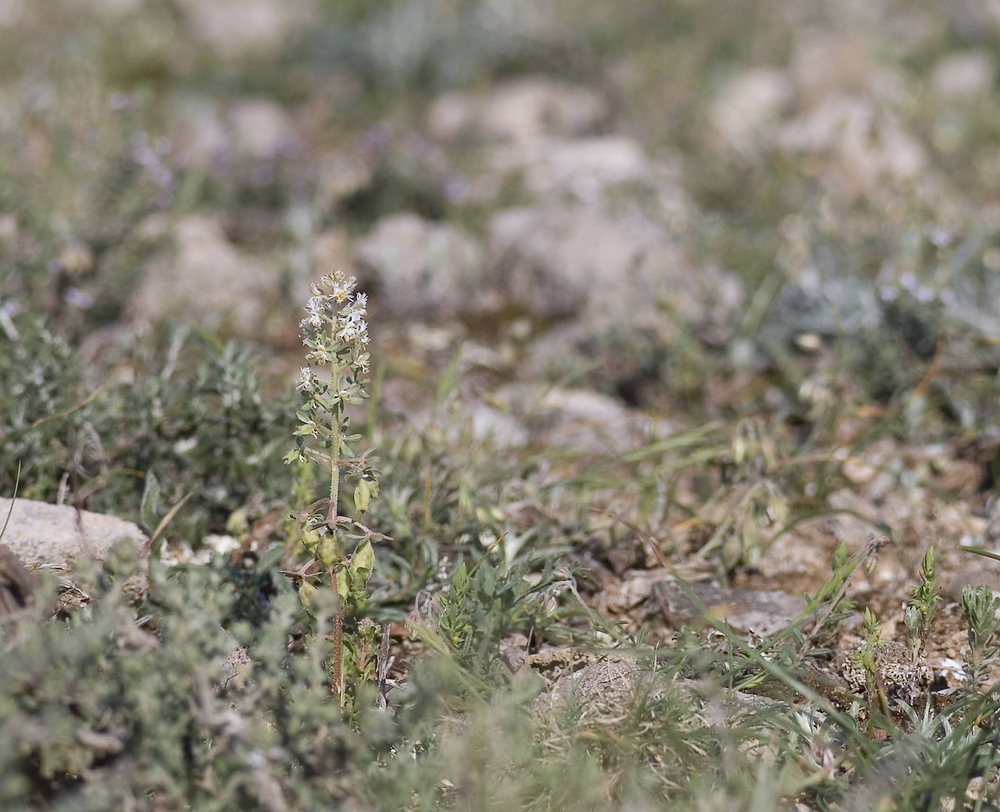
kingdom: Plantae
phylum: Tracheophyta
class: Magnoliopsida
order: Brassicales
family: Resedaceae
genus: Reseda
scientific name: Reseda phyteuma
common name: Corn mignonette
